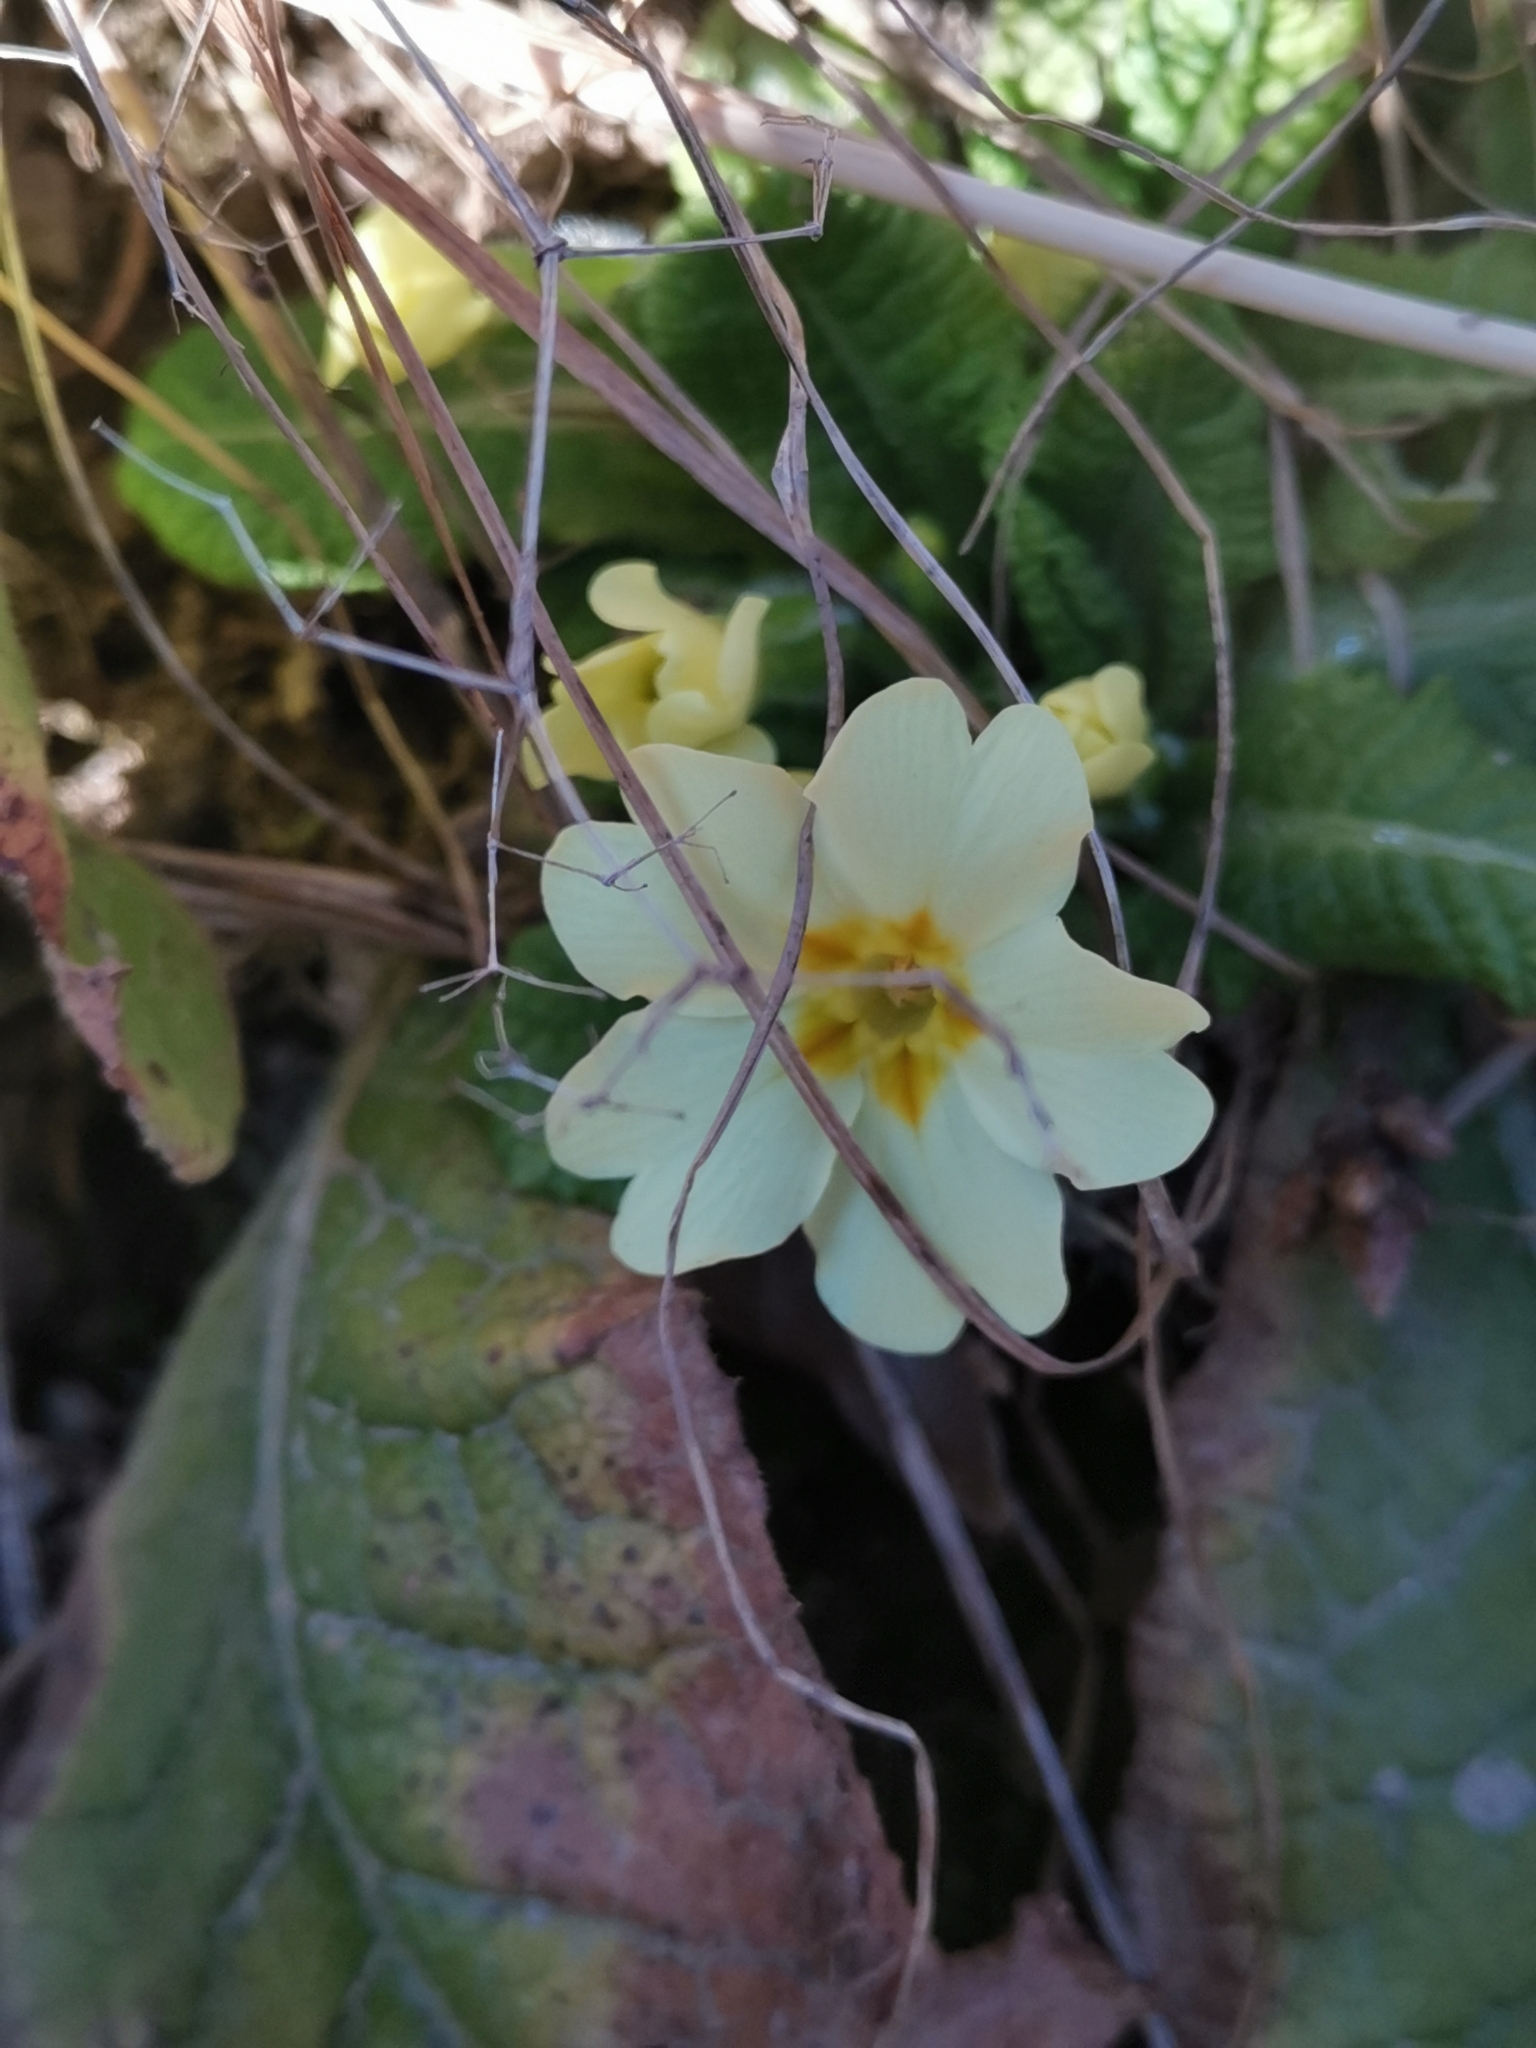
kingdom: Plantae
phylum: Tracheophyta
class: Magnoliopsida
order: Ericales
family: Primulaceae
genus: Primula
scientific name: Primula vulgaris
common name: Primrose
